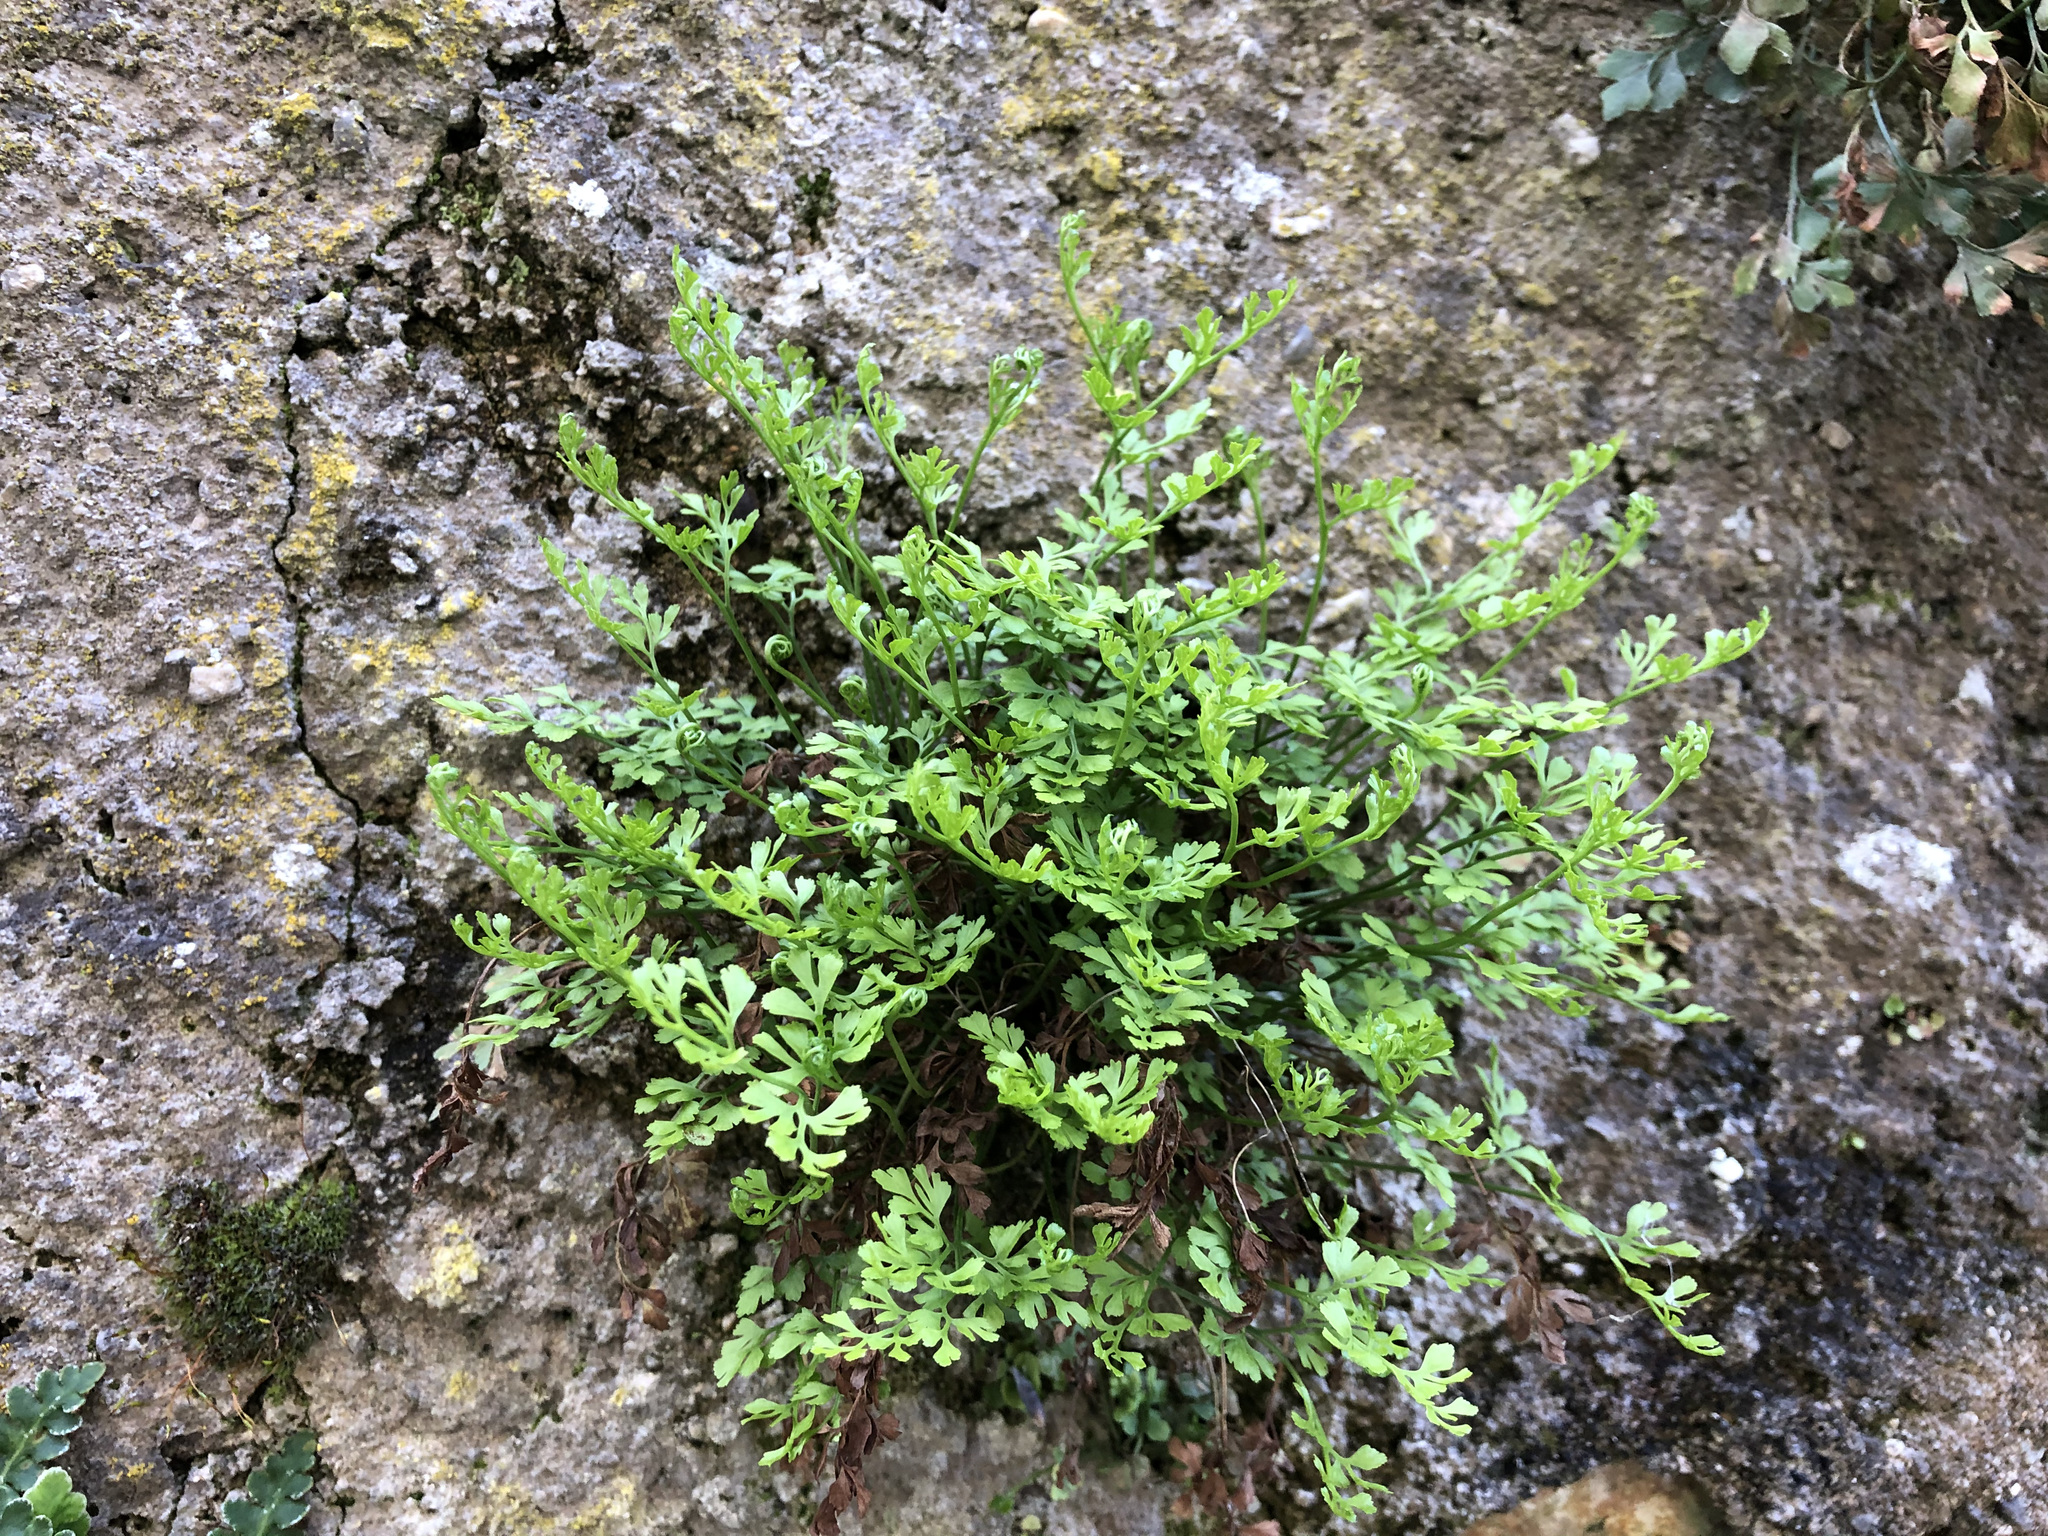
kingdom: Plantae
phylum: Tracheophyta
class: Polypodiopsida
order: Polypodiales
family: Aspleniaceae
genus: Asplenium
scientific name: Asplenium ruta-muraria
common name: Wall-rue
